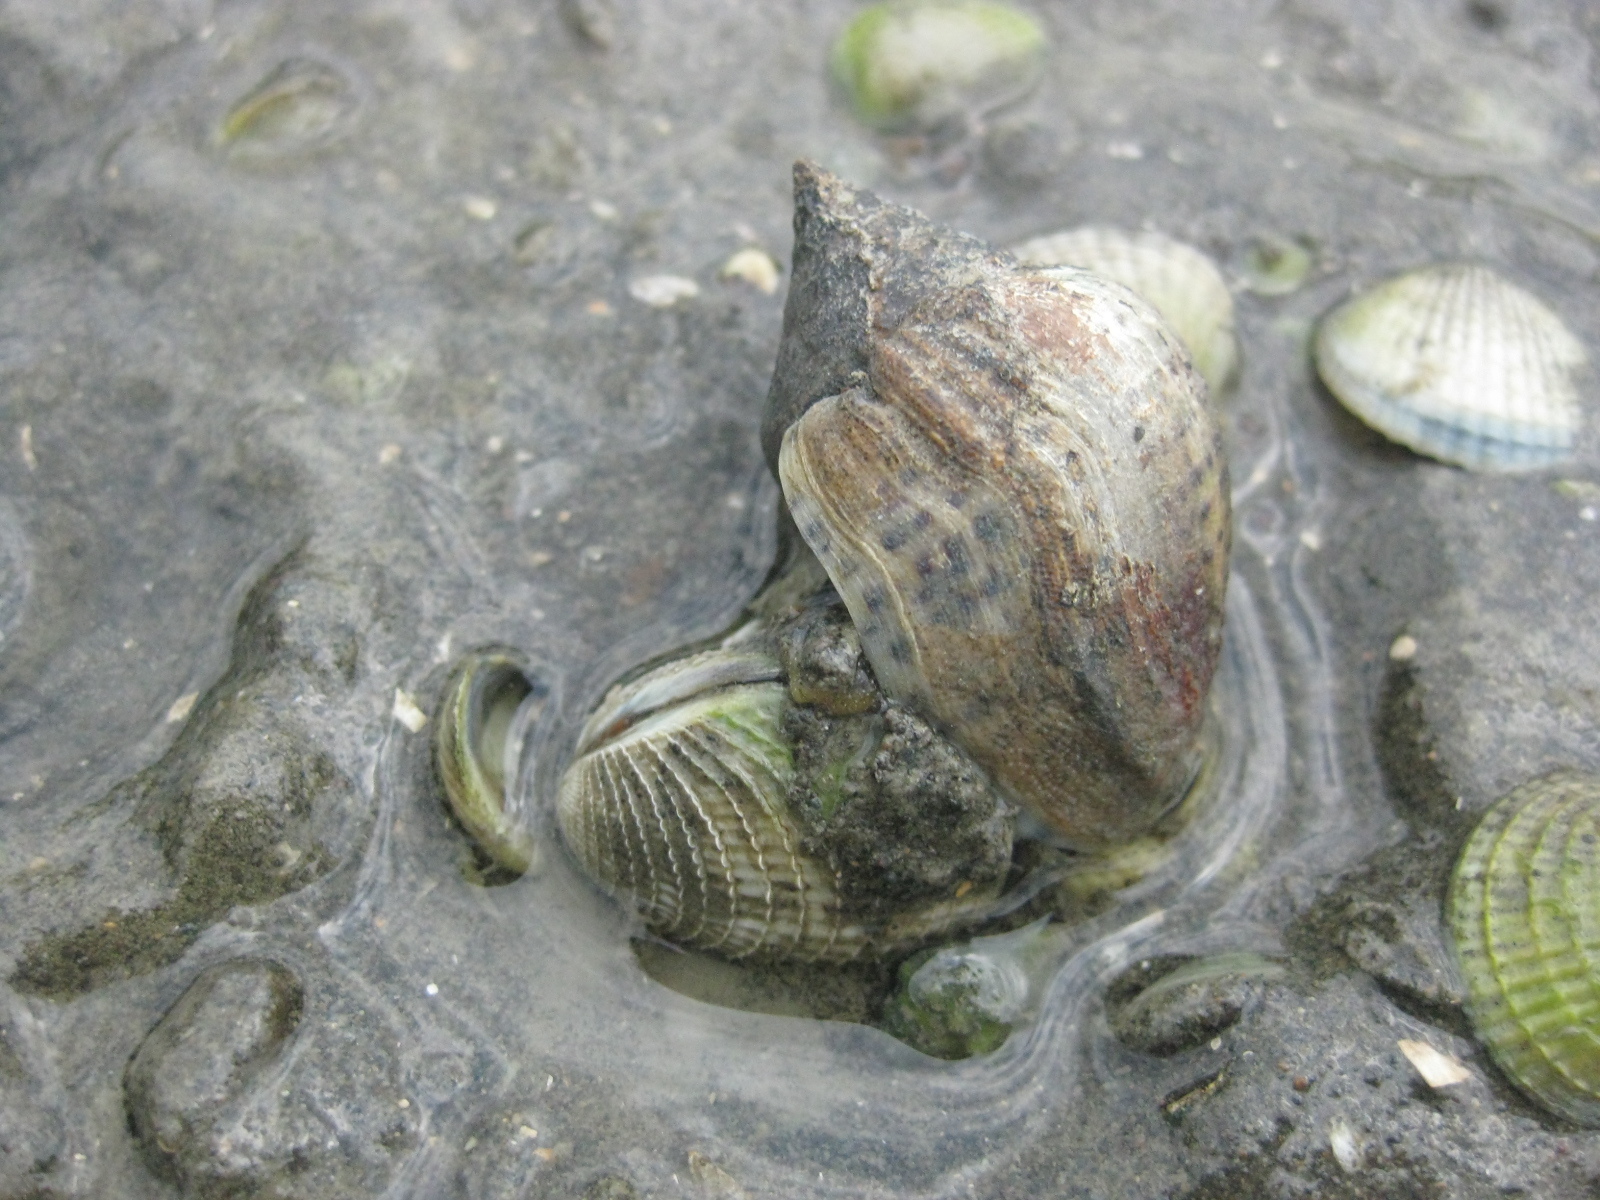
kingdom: Animalia
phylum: Mollusca
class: Bivalvia
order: Venerida
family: Veneridae
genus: Austrovenus
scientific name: Austrovenus stutchburyi
